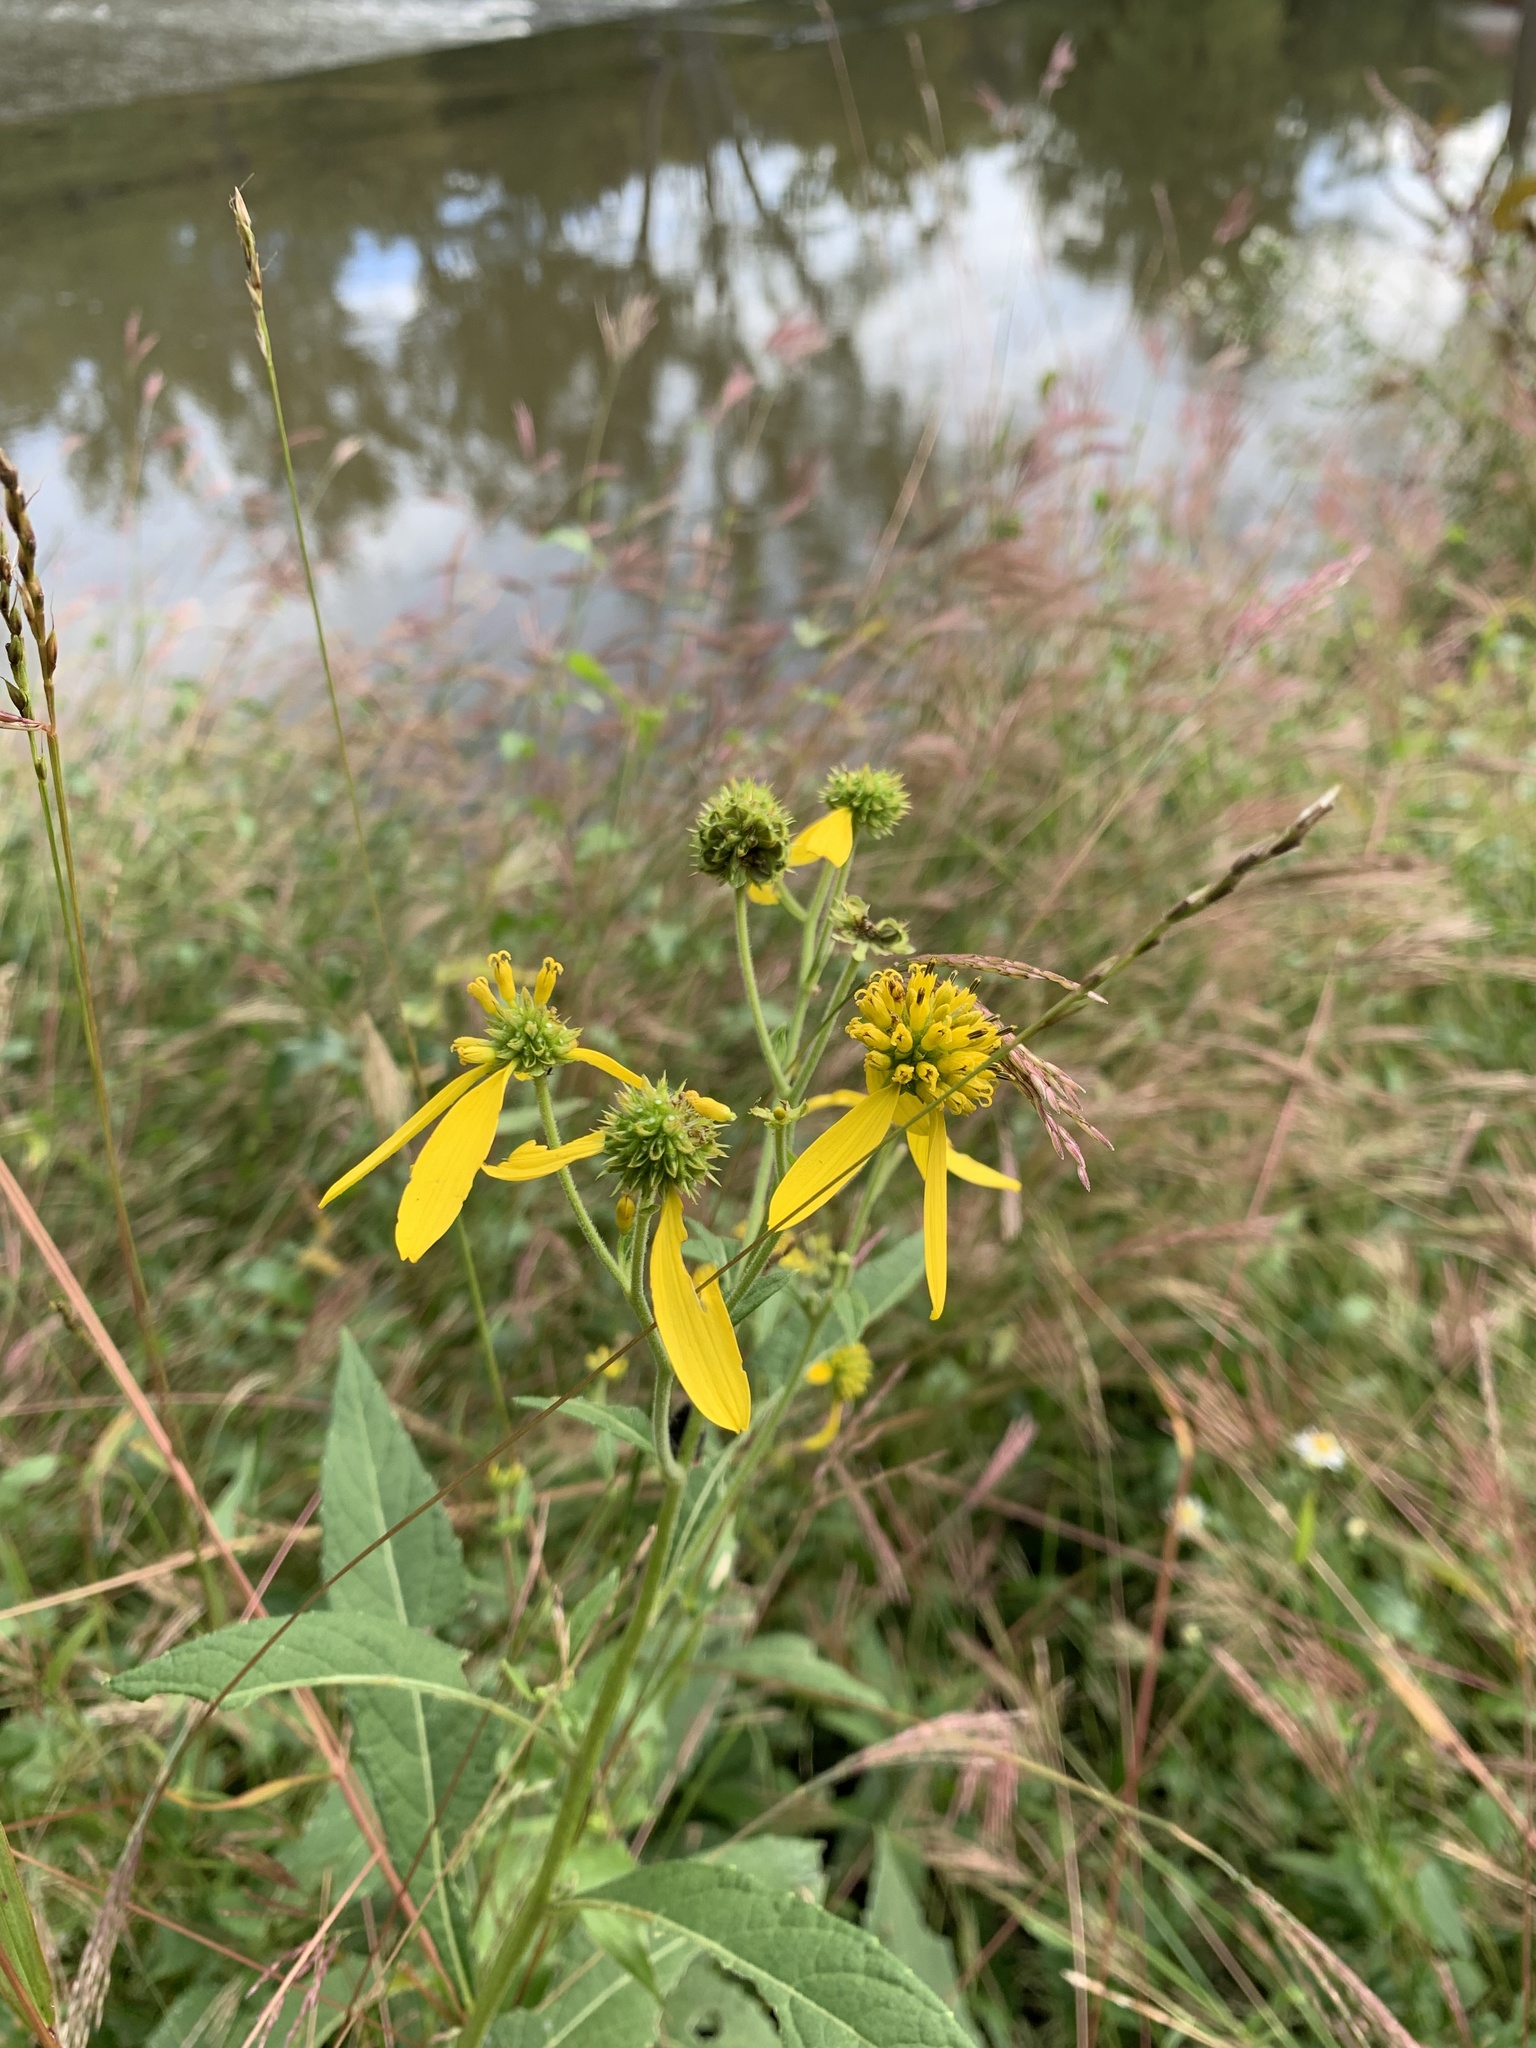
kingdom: Plantae
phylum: Tracheophyta
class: Magnoliopsida
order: Asterales
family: Asteraceae
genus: Verbesina
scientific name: Verbesina alternifolia
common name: Wingstem
